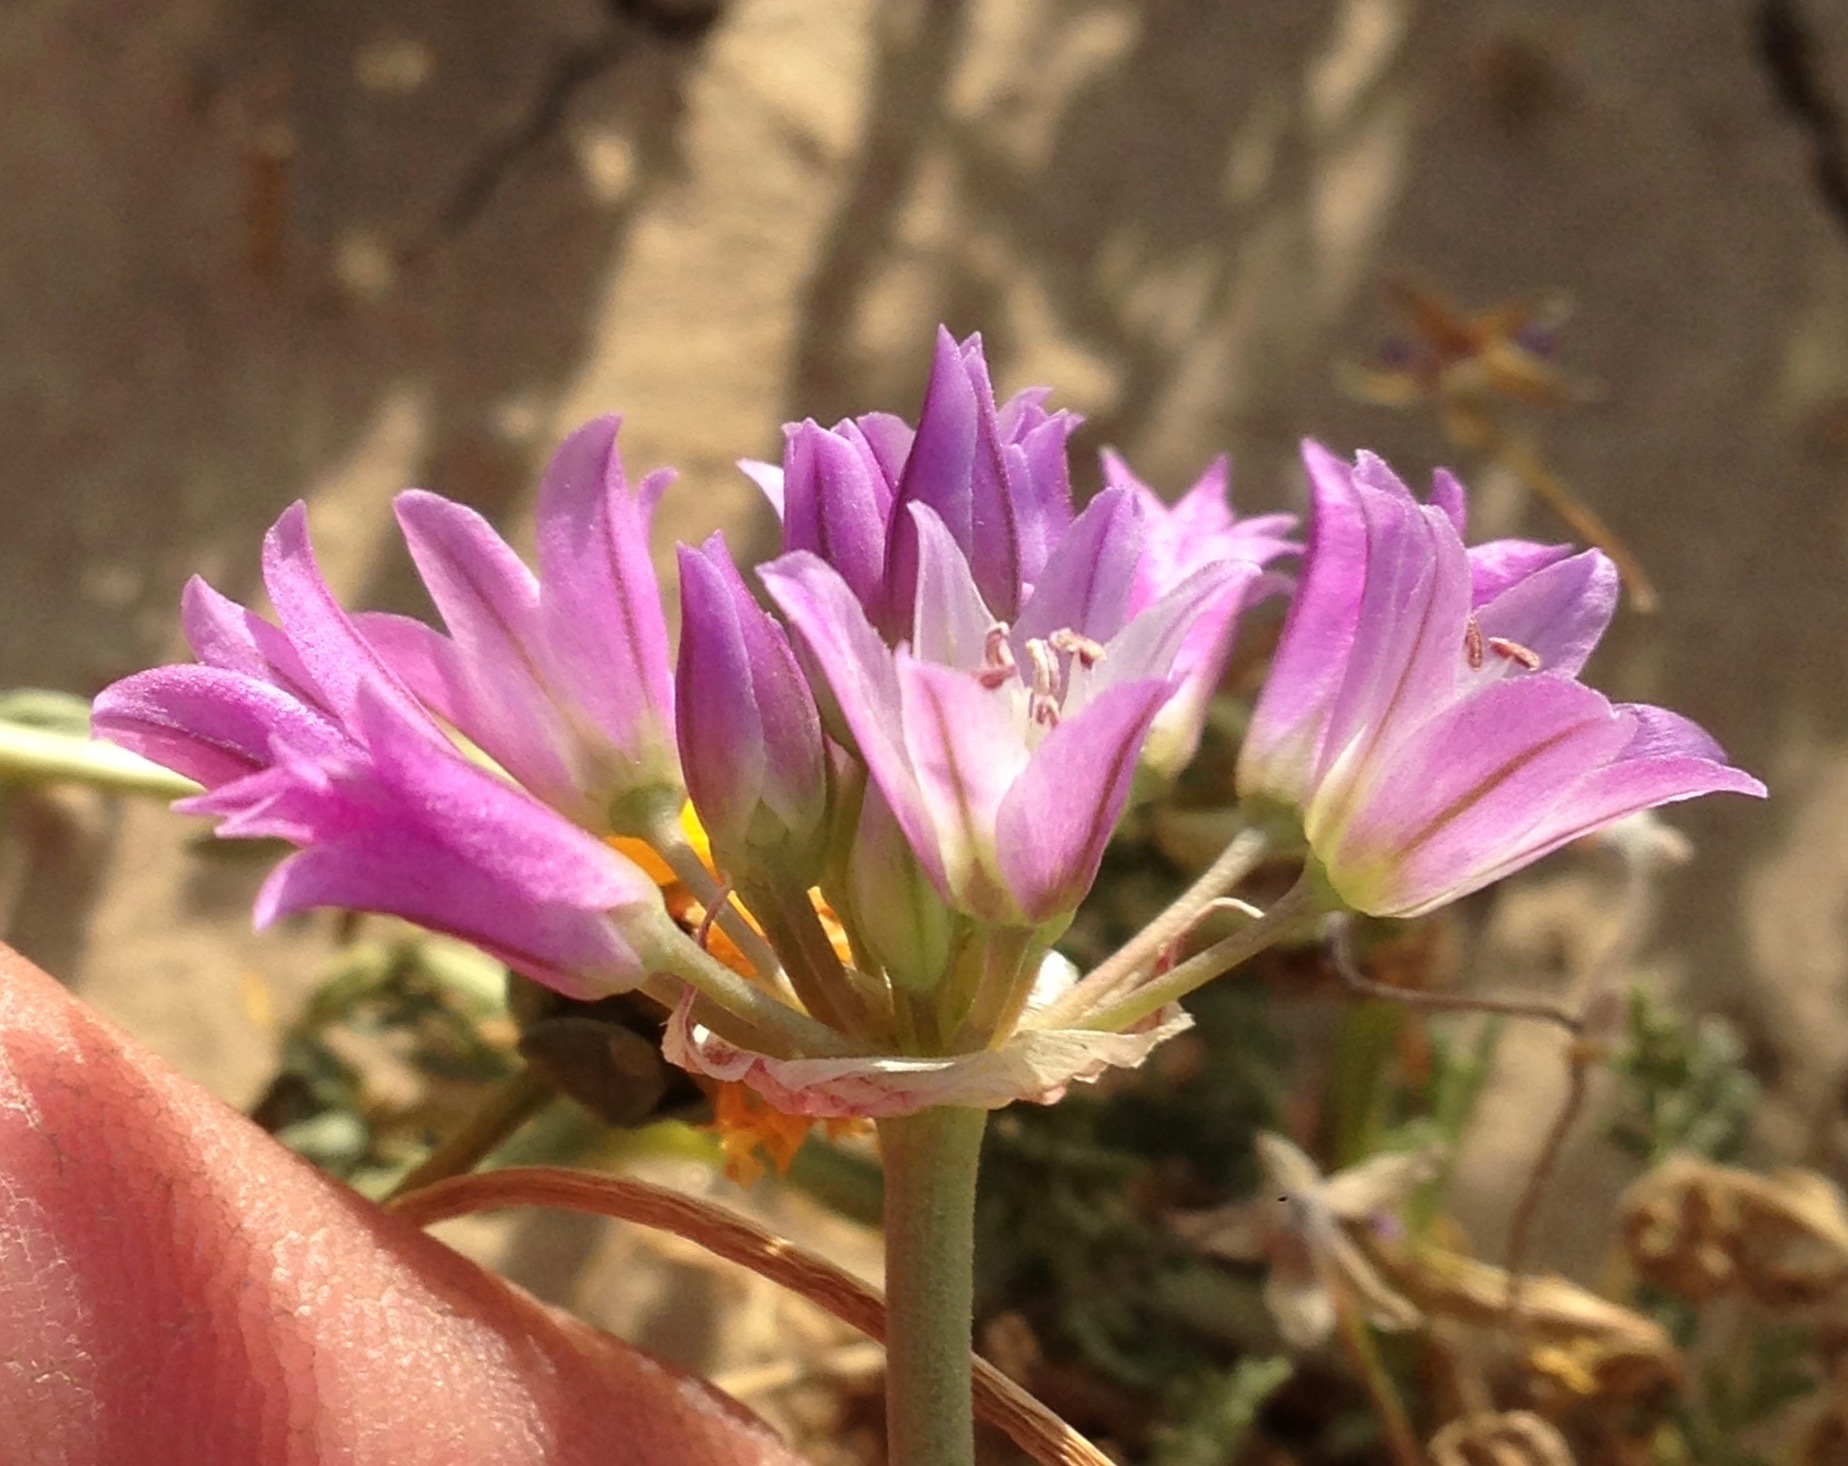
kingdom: Plantae
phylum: Tracheophyta
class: Liliopsida
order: Asparagales
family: Amaryllidaceae
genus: Allium
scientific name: Allium fimbriatum
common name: Fringed onion
